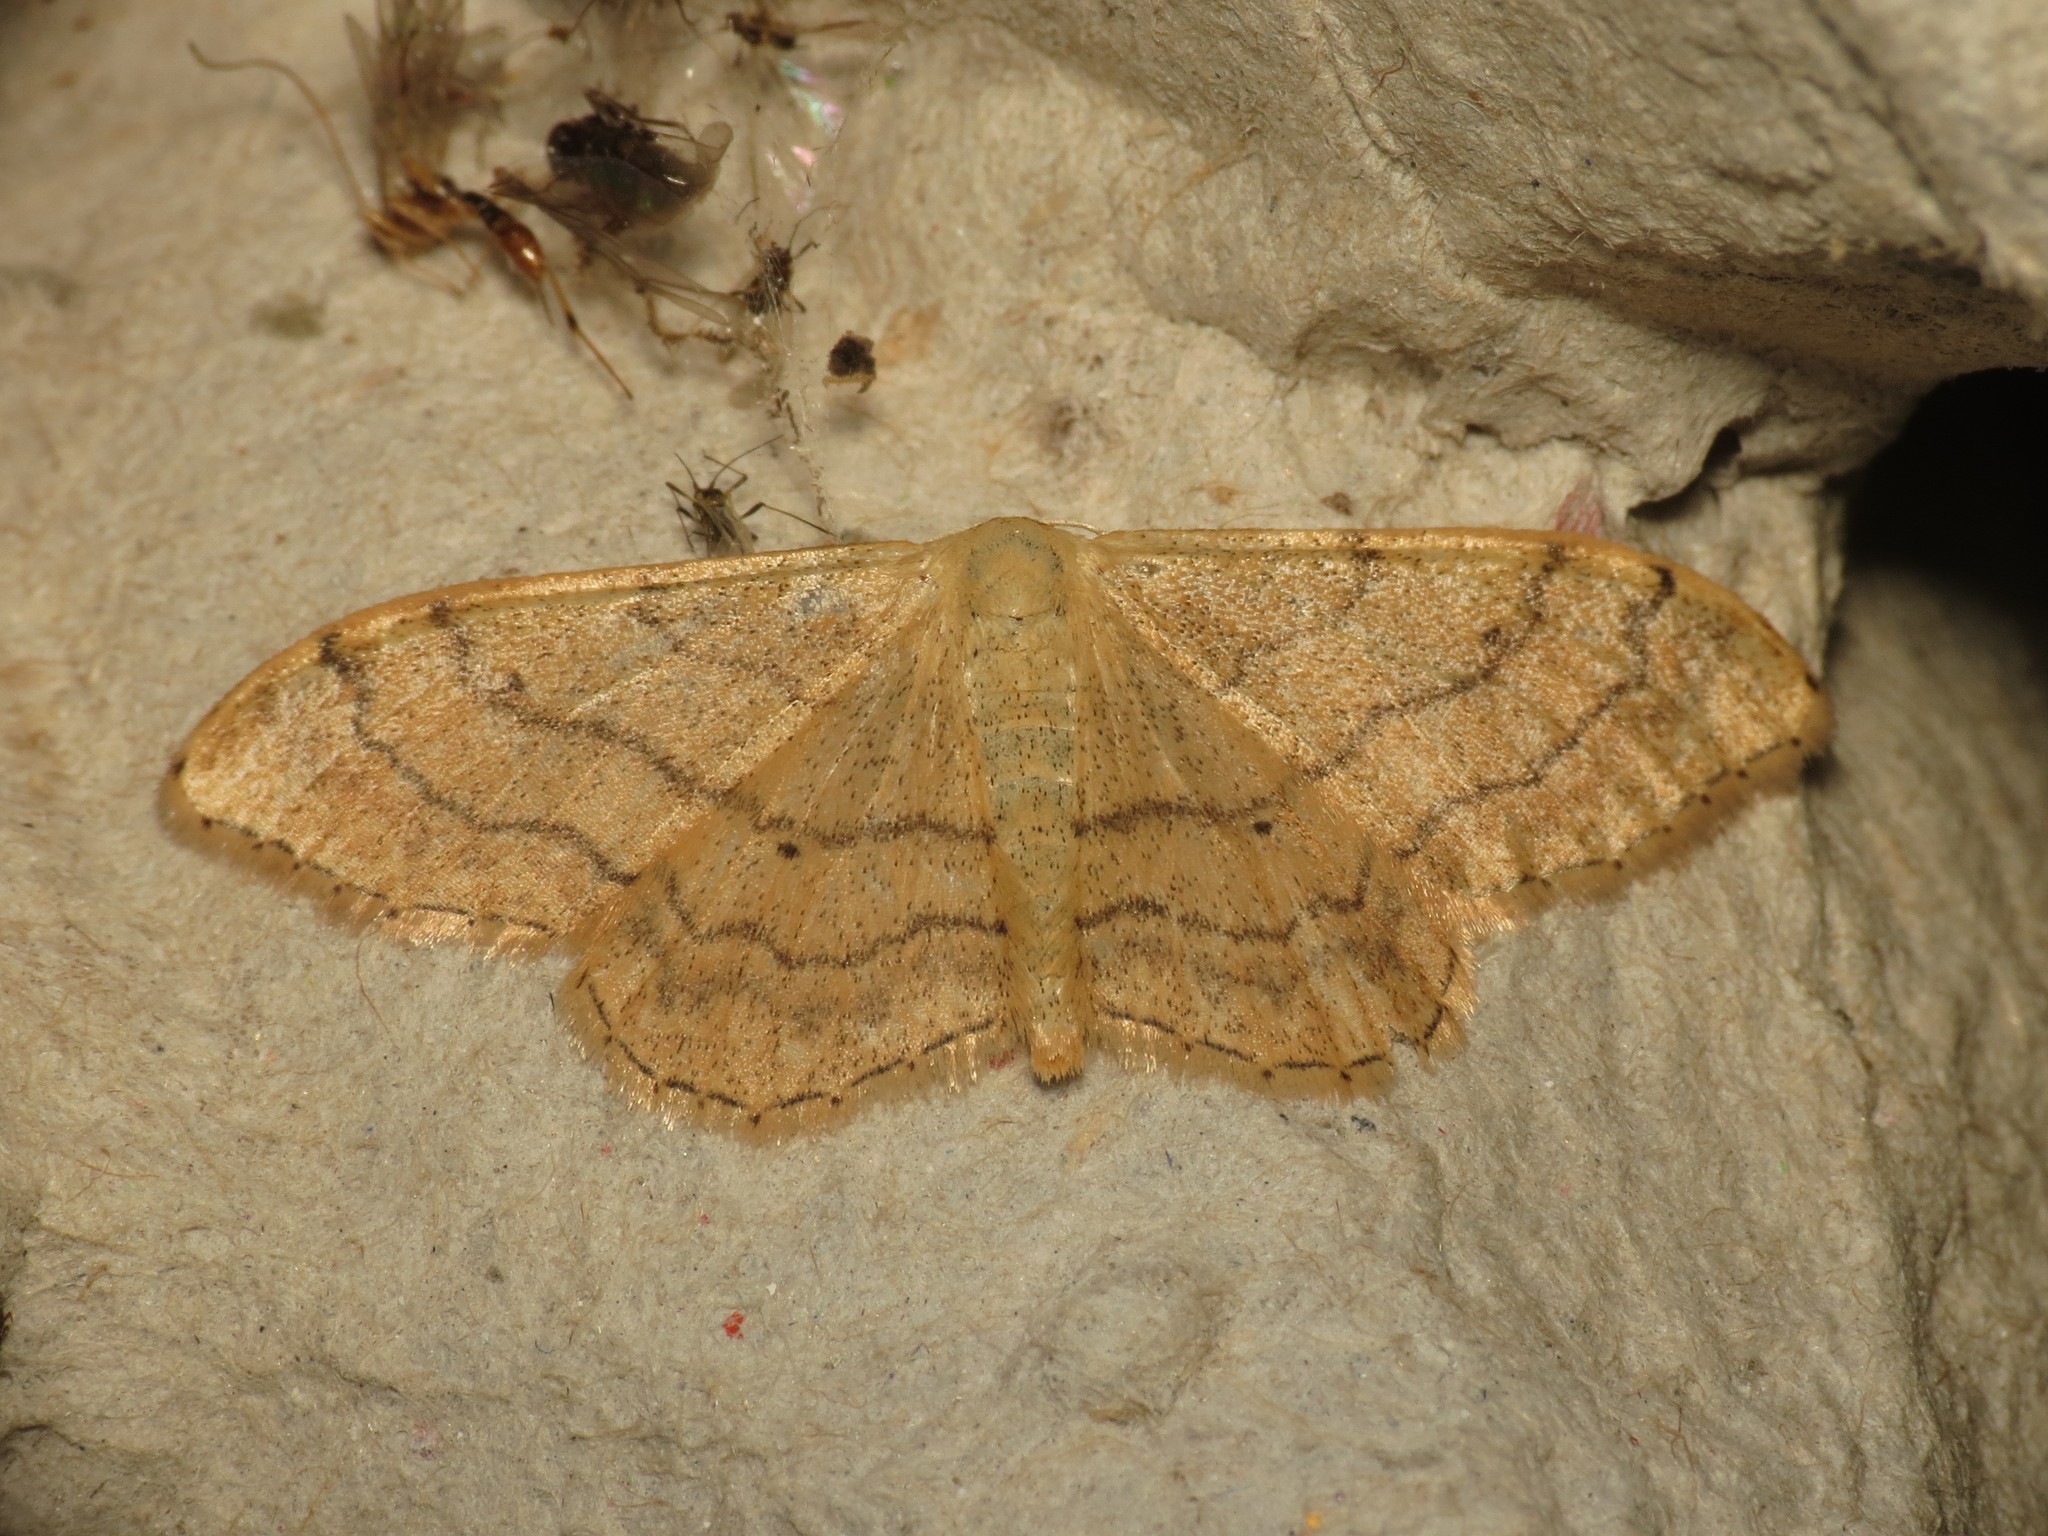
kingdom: Animalia
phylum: Arthropoda
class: Insecta
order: Lepidoptera
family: Geometridae
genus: Idaea
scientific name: Idaea aversata
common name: Riband wave
